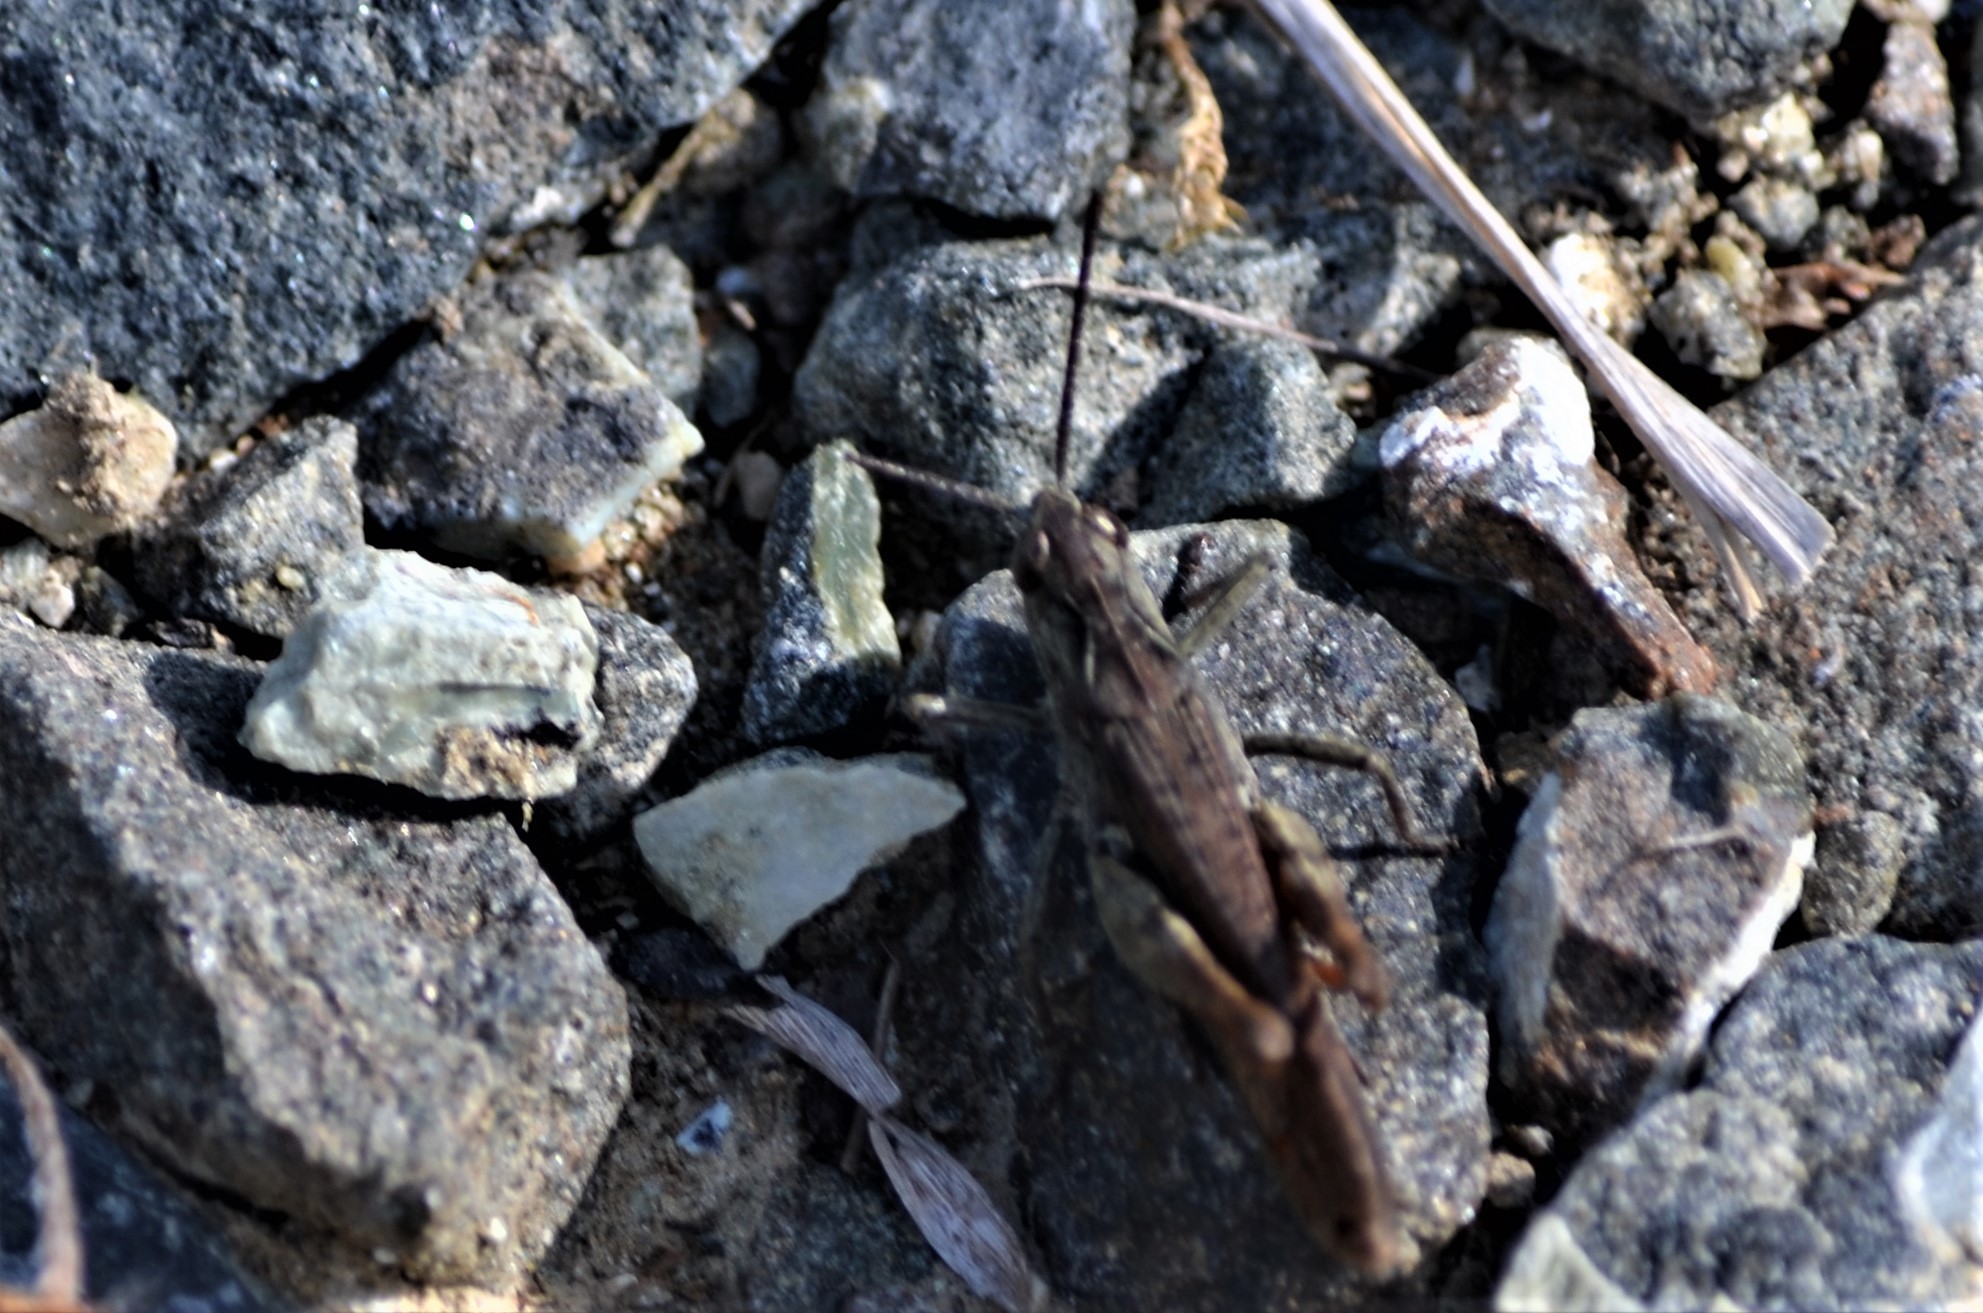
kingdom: Animalia
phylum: Arthropoda
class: Insecta
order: Orthoptera
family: Acrididae
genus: Chorthippus
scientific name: Chorthippus biguttulus
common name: Bow-winged grasshopper
